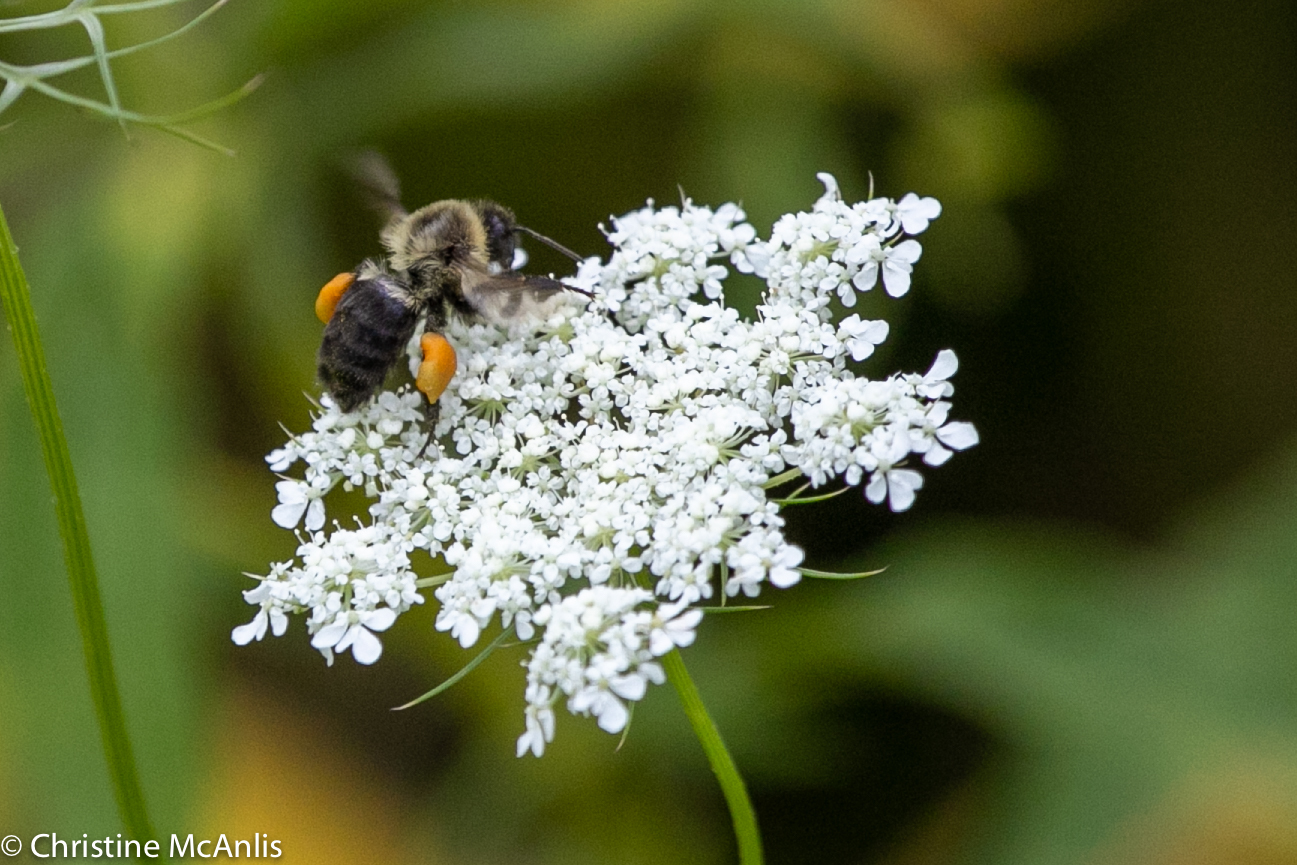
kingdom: Animalia
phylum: Arthropoda
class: Insecta
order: Hymenoptera
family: Apidae
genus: Bombus
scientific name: Bombus impatiens
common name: Common eastern bumble bee
